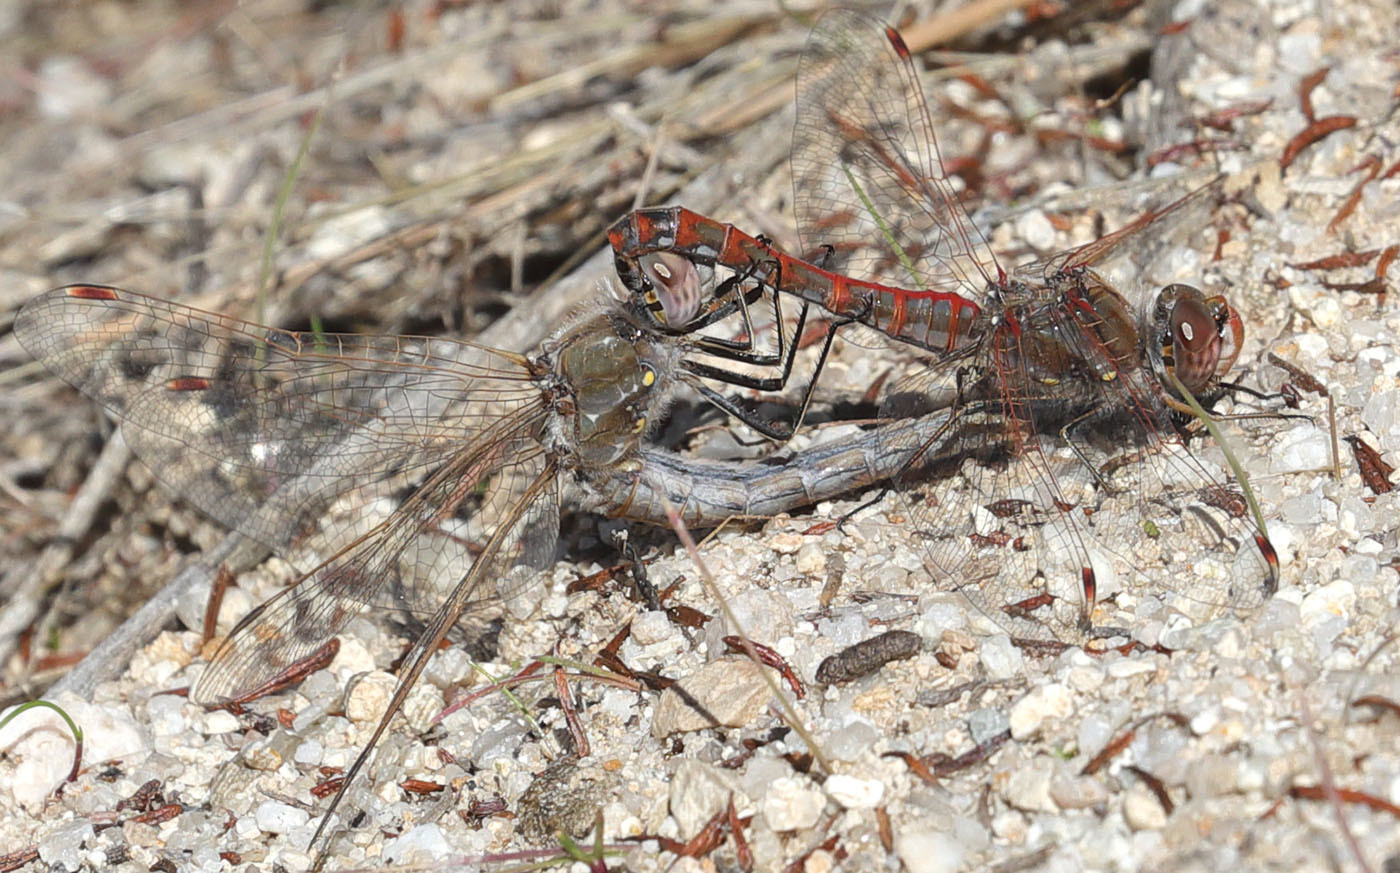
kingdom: Animalia
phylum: Arthropoda
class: Insecta
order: Odonata
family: Libellulidae
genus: Sympetrum
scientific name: Sympetrum corruptum
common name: Variegated meadowhawk
